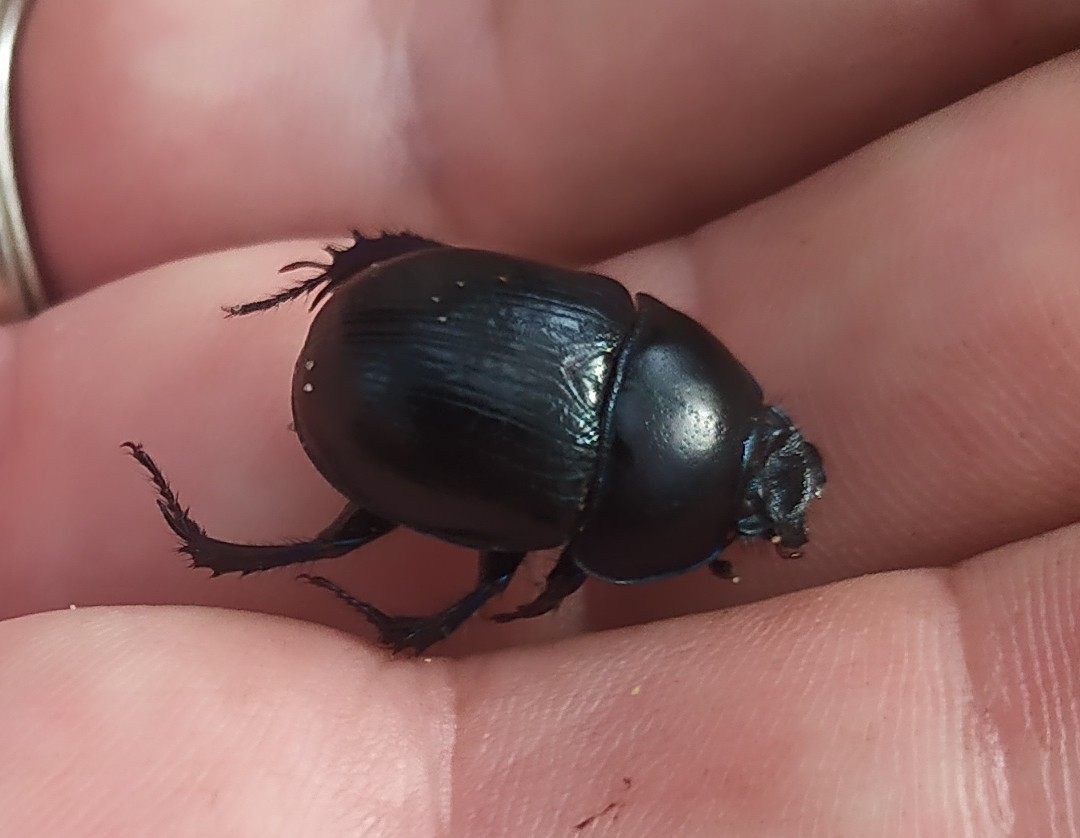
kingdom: Animalia
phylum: Arthropoda
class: Insecta
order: Coleoptera
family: Geotrupidae
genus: Anoplotrupes
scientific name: Anoplotrupes stercorosus
